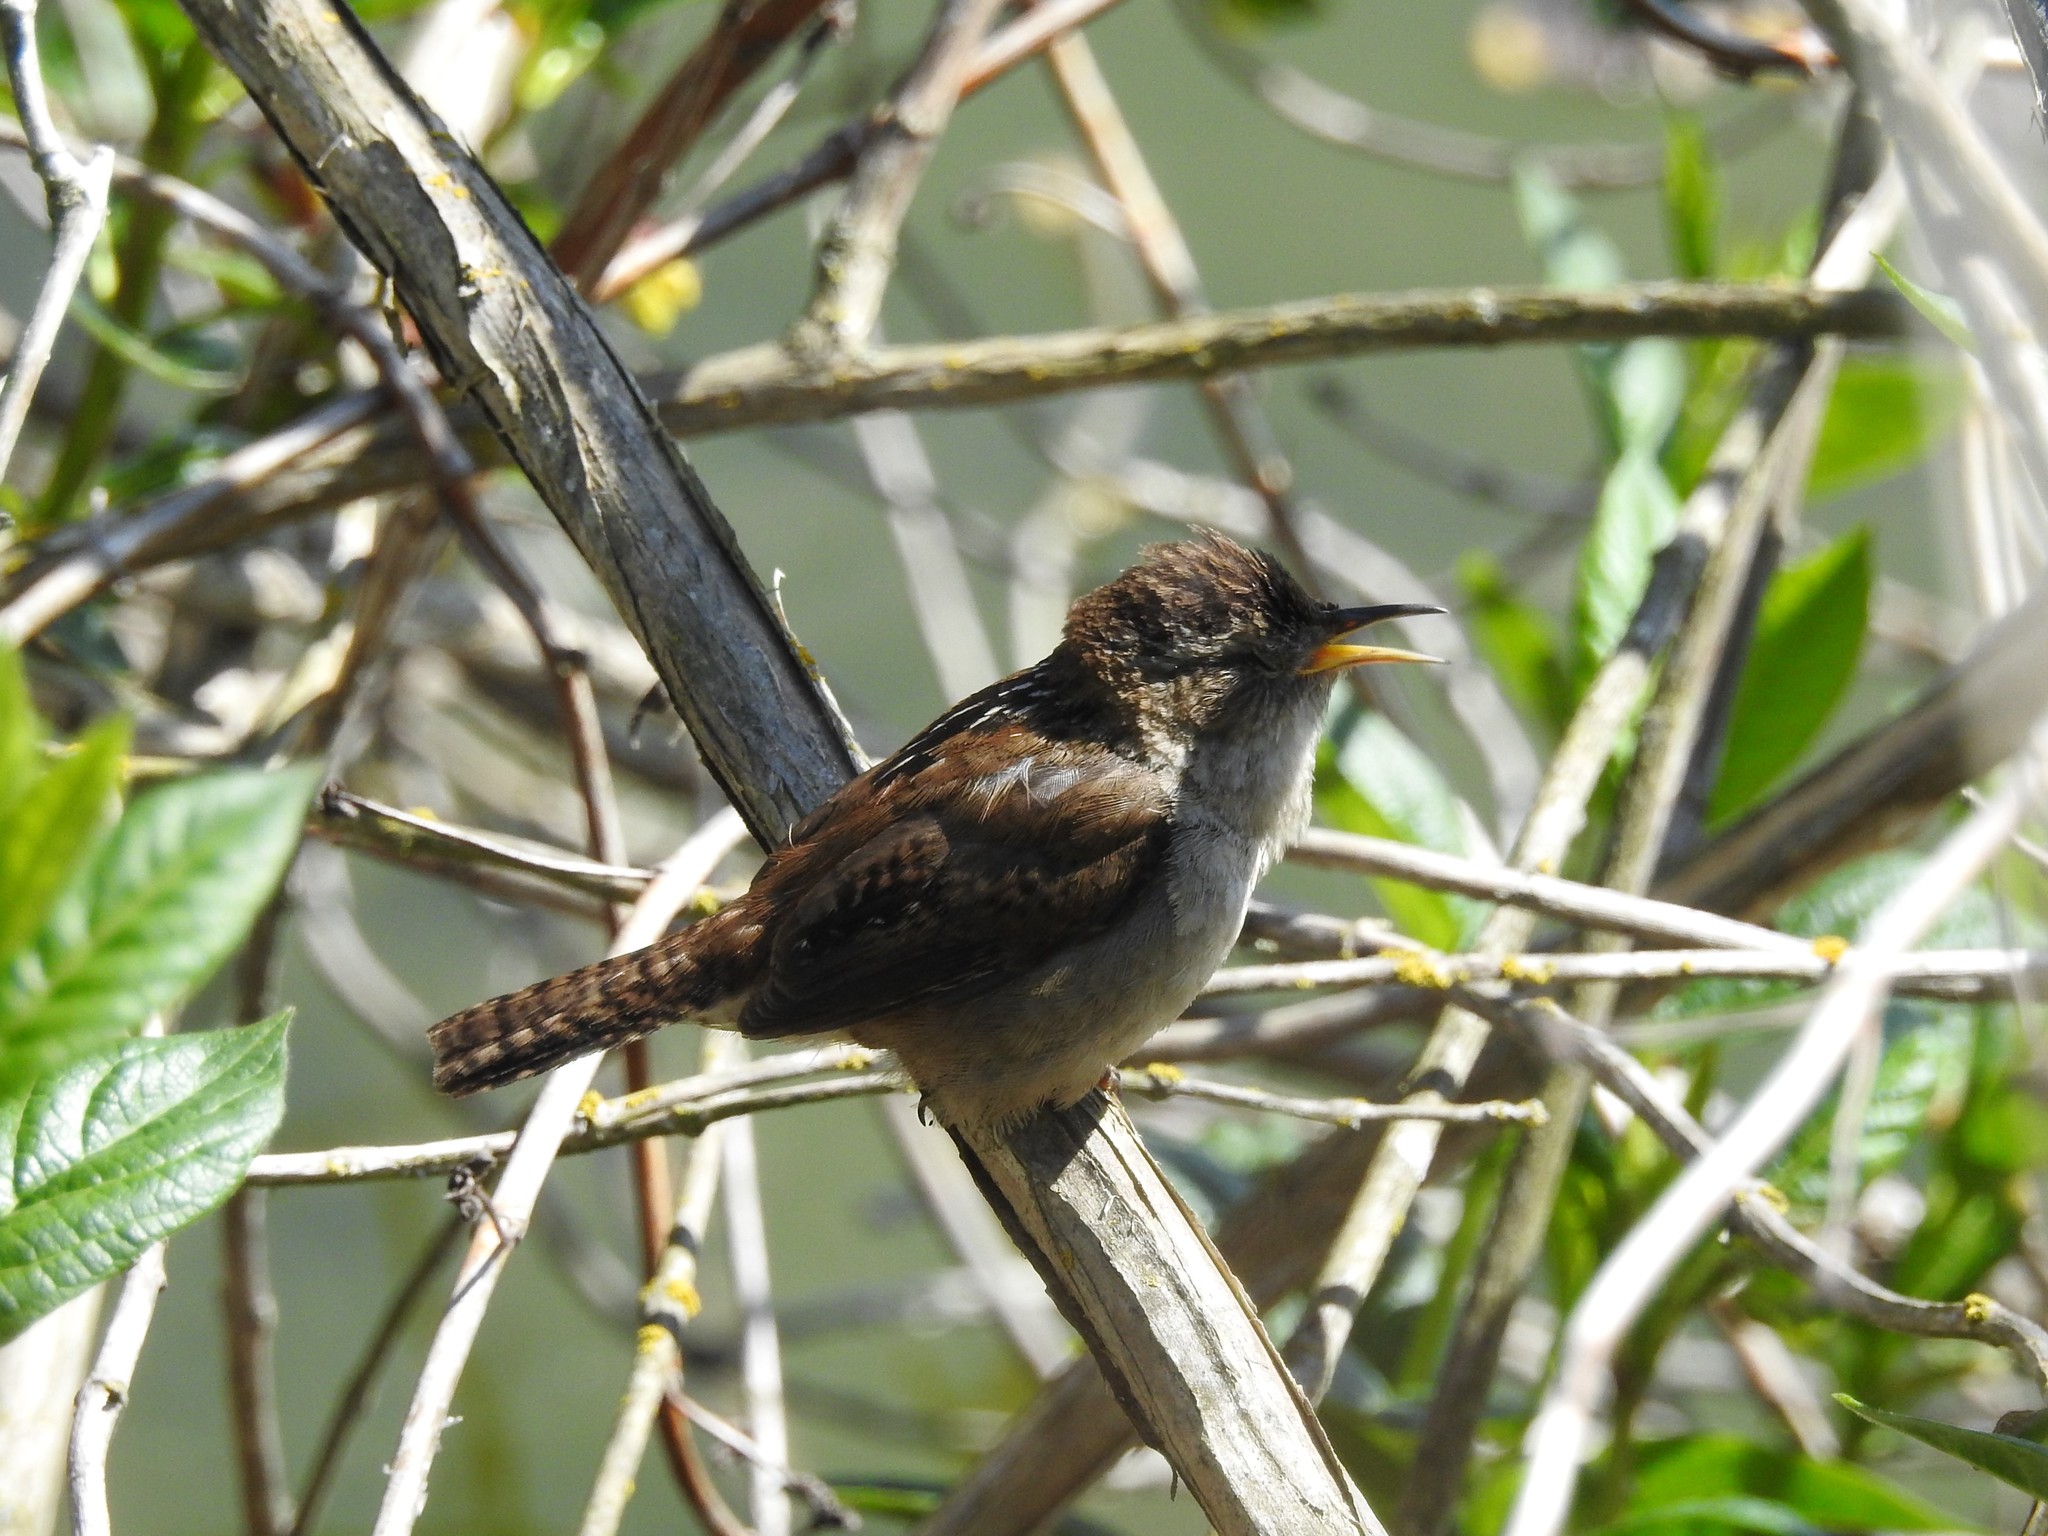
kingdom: Animalia
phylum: Chordata
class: Aves
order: Passeriformes
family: Troglodytidae
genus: Cistothorus
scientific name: Cistothorus palustris
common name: Marsh wren
